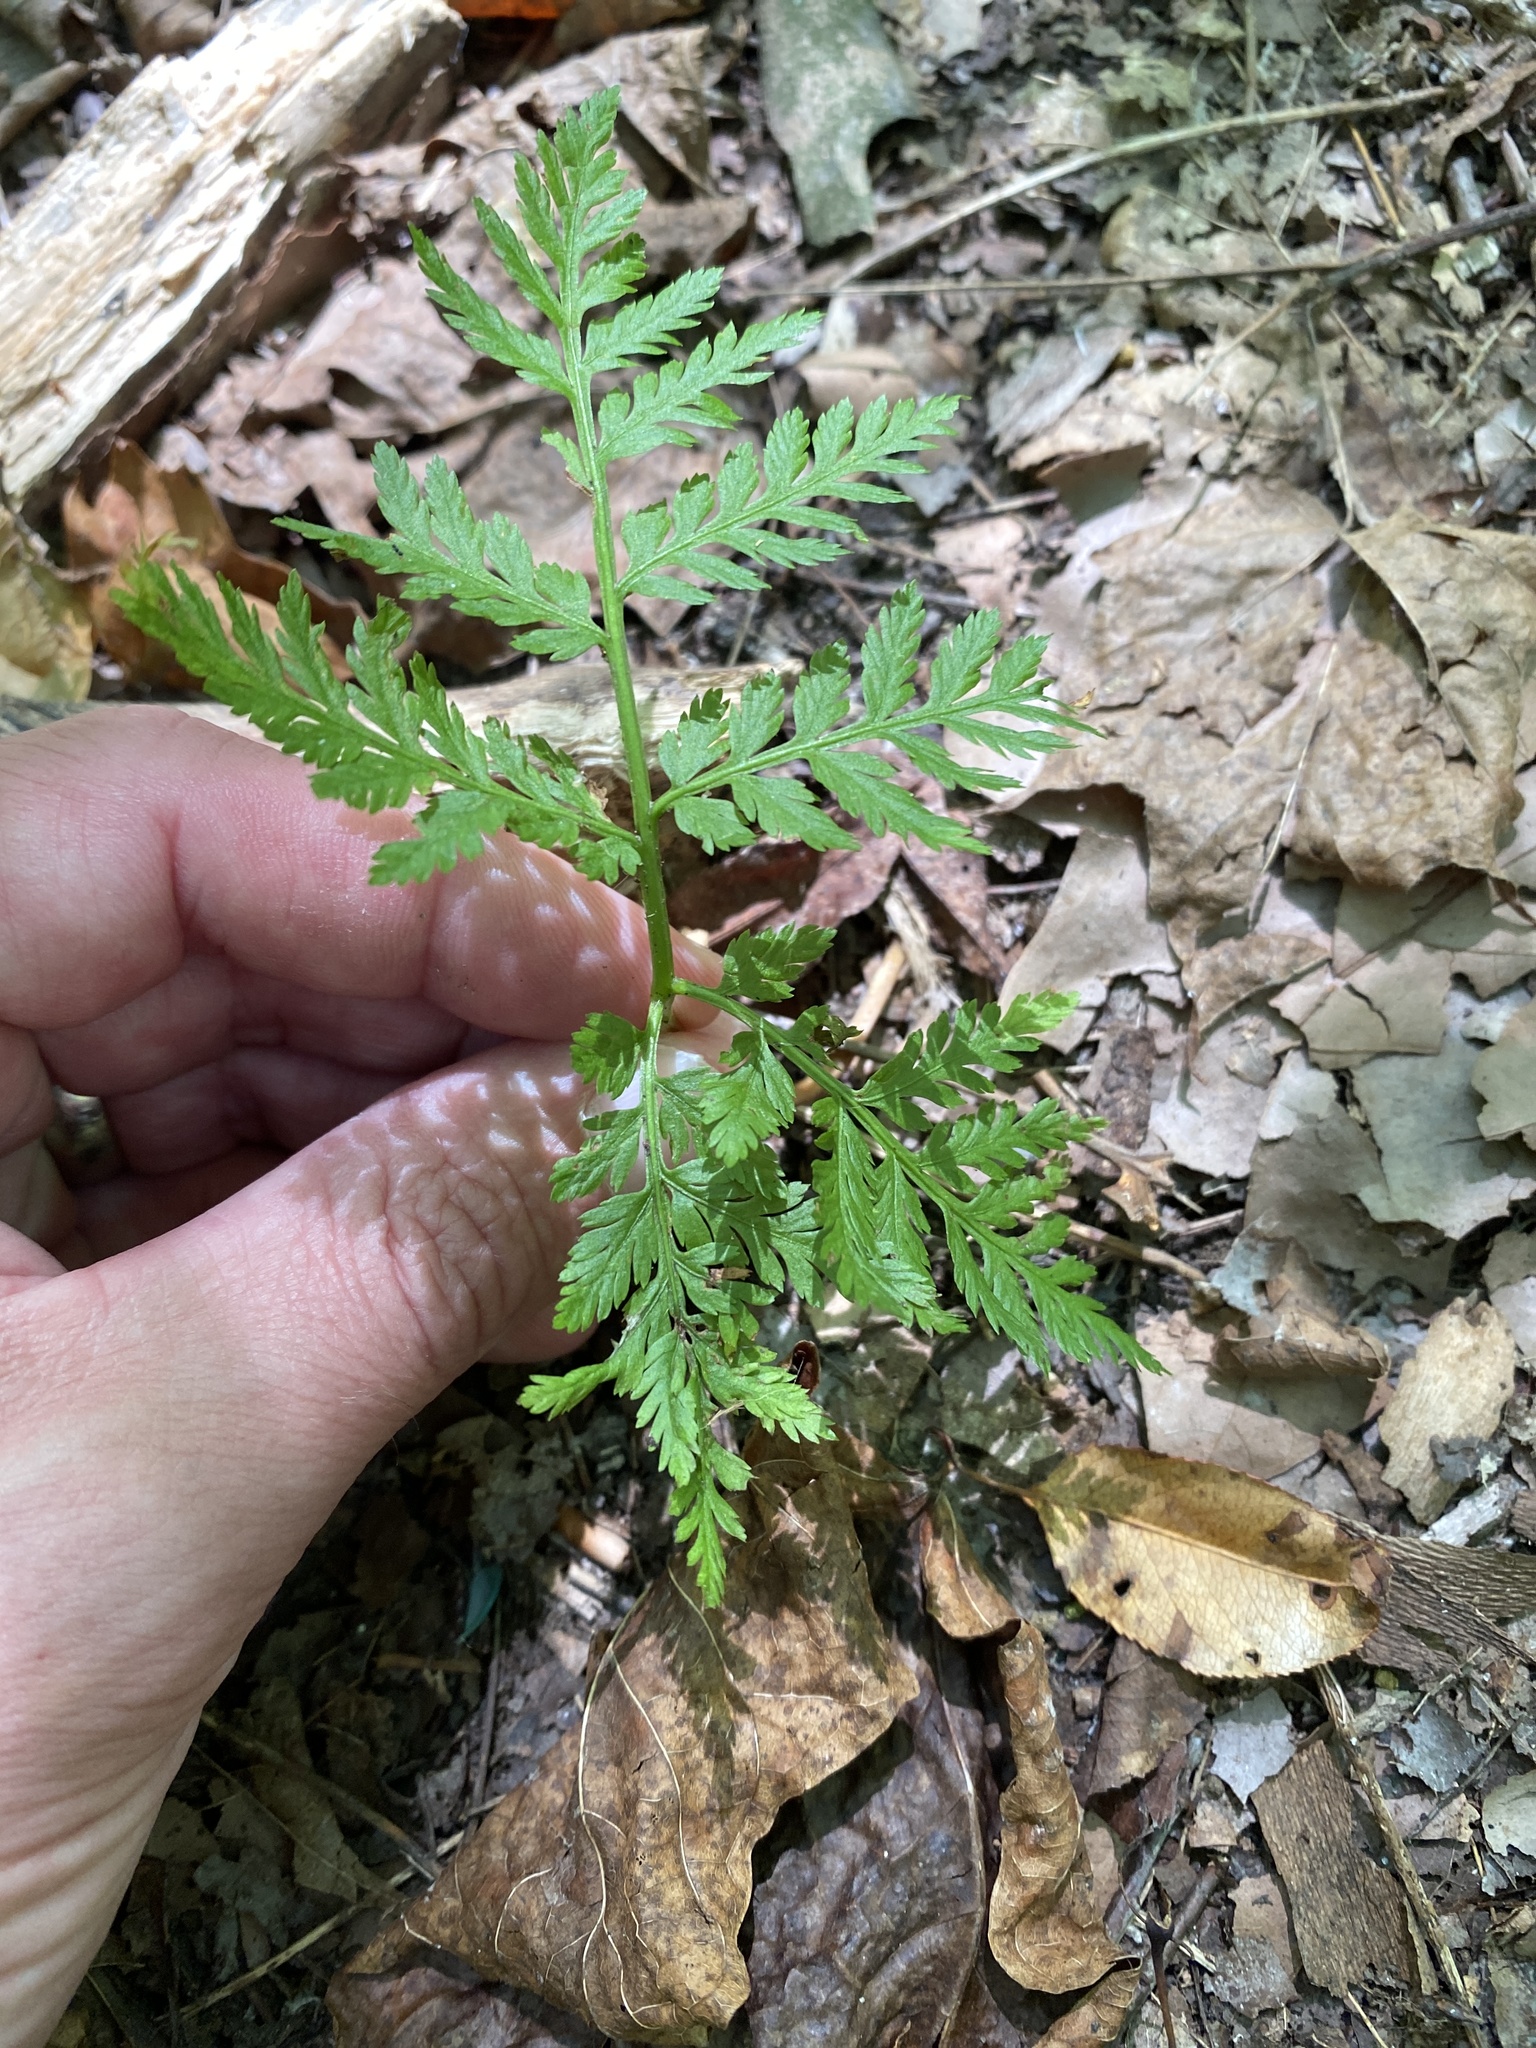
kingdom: Plantae
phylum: Tracheophyta
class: Polypodiopsida
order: Ophioglossales
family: Ophioglossaceae
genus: Botrypus
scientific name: Botrypus virginianus
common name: Common grapefern
